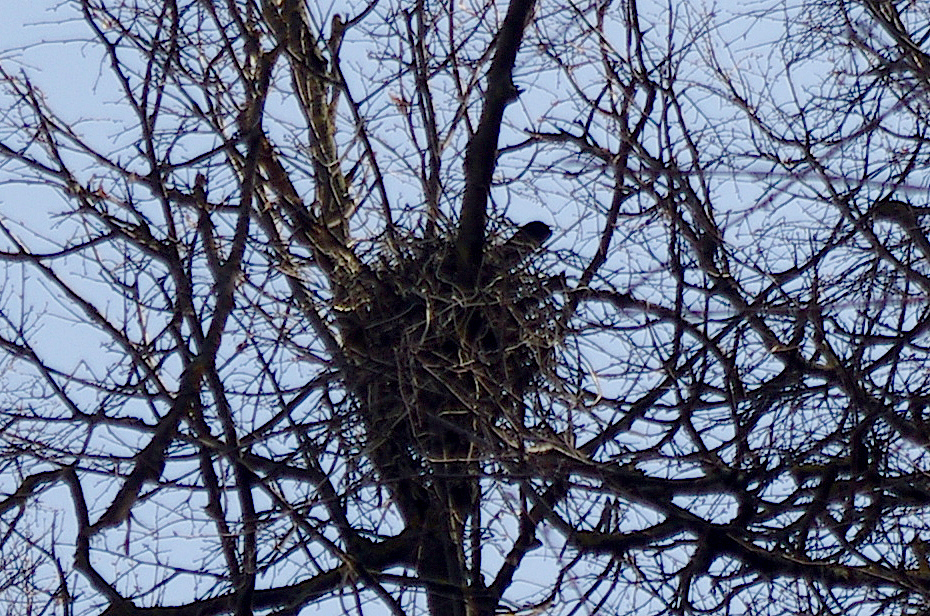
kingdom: Animalia
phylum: Chordata
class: Aves
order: Passeriformes
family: Corvidae
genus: Corvus
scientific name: Corvus cornix
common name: Hooded crow
